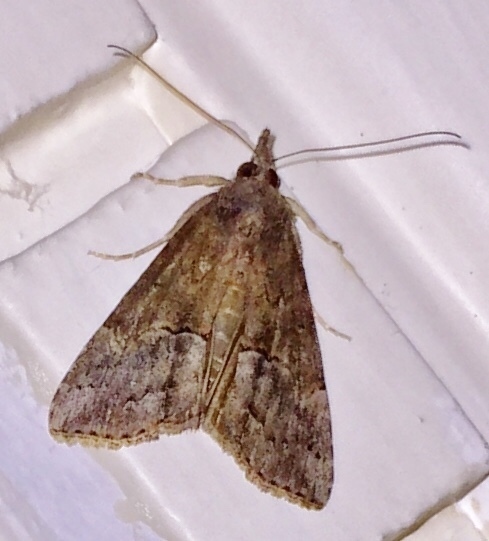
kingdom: Animalia
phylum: Arthropoda
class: Insecta
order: Lepidoptera
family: Erebidae
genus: Hypena
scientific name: Hypena scabra
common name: Green cloverworm
